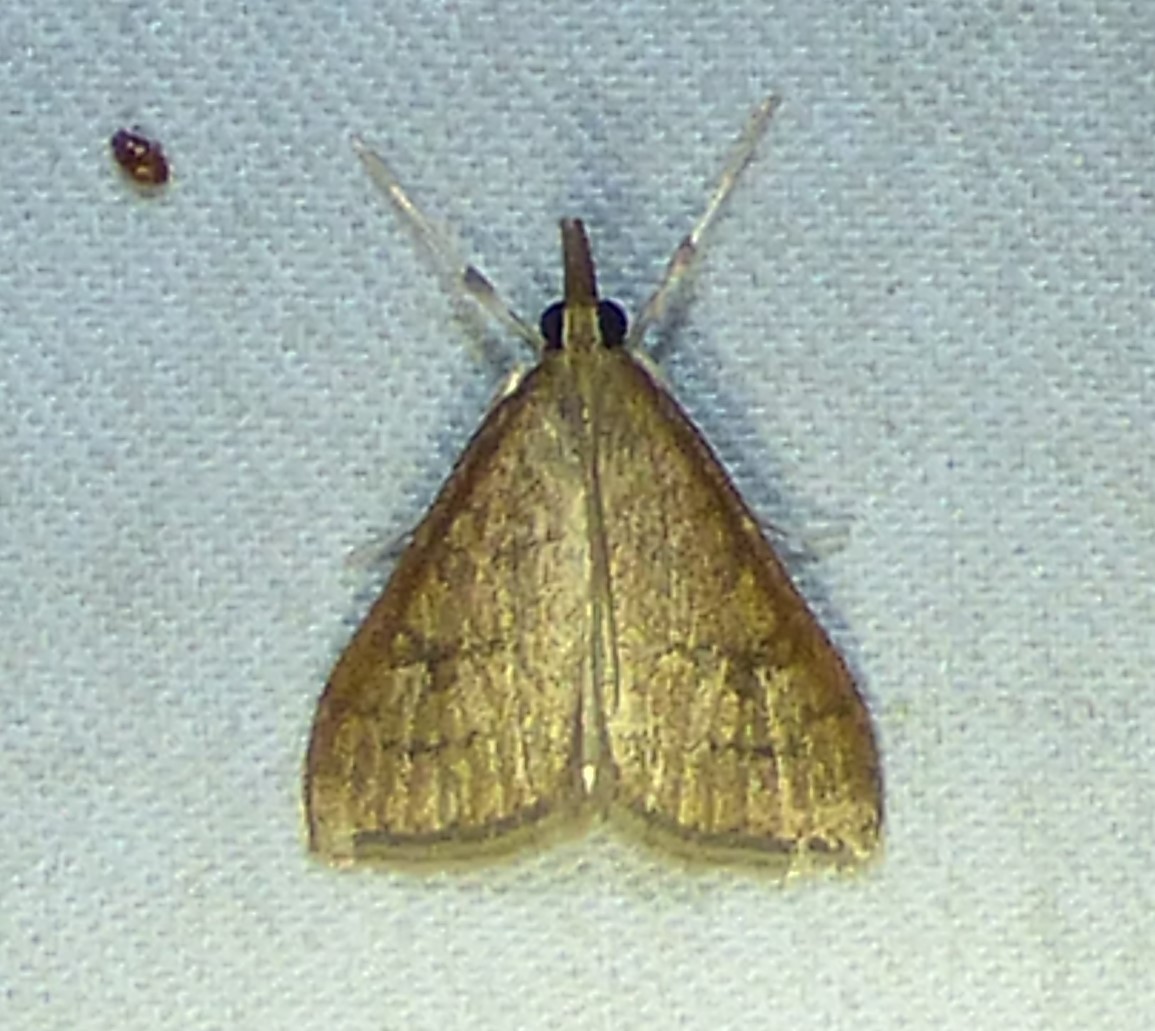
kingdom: Animalia
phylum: Arthropoda
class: Insecta
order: Lepidoptera
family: Crambidae
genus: Udea
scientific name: Udea rubigalis
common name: Celery leaftier moth
